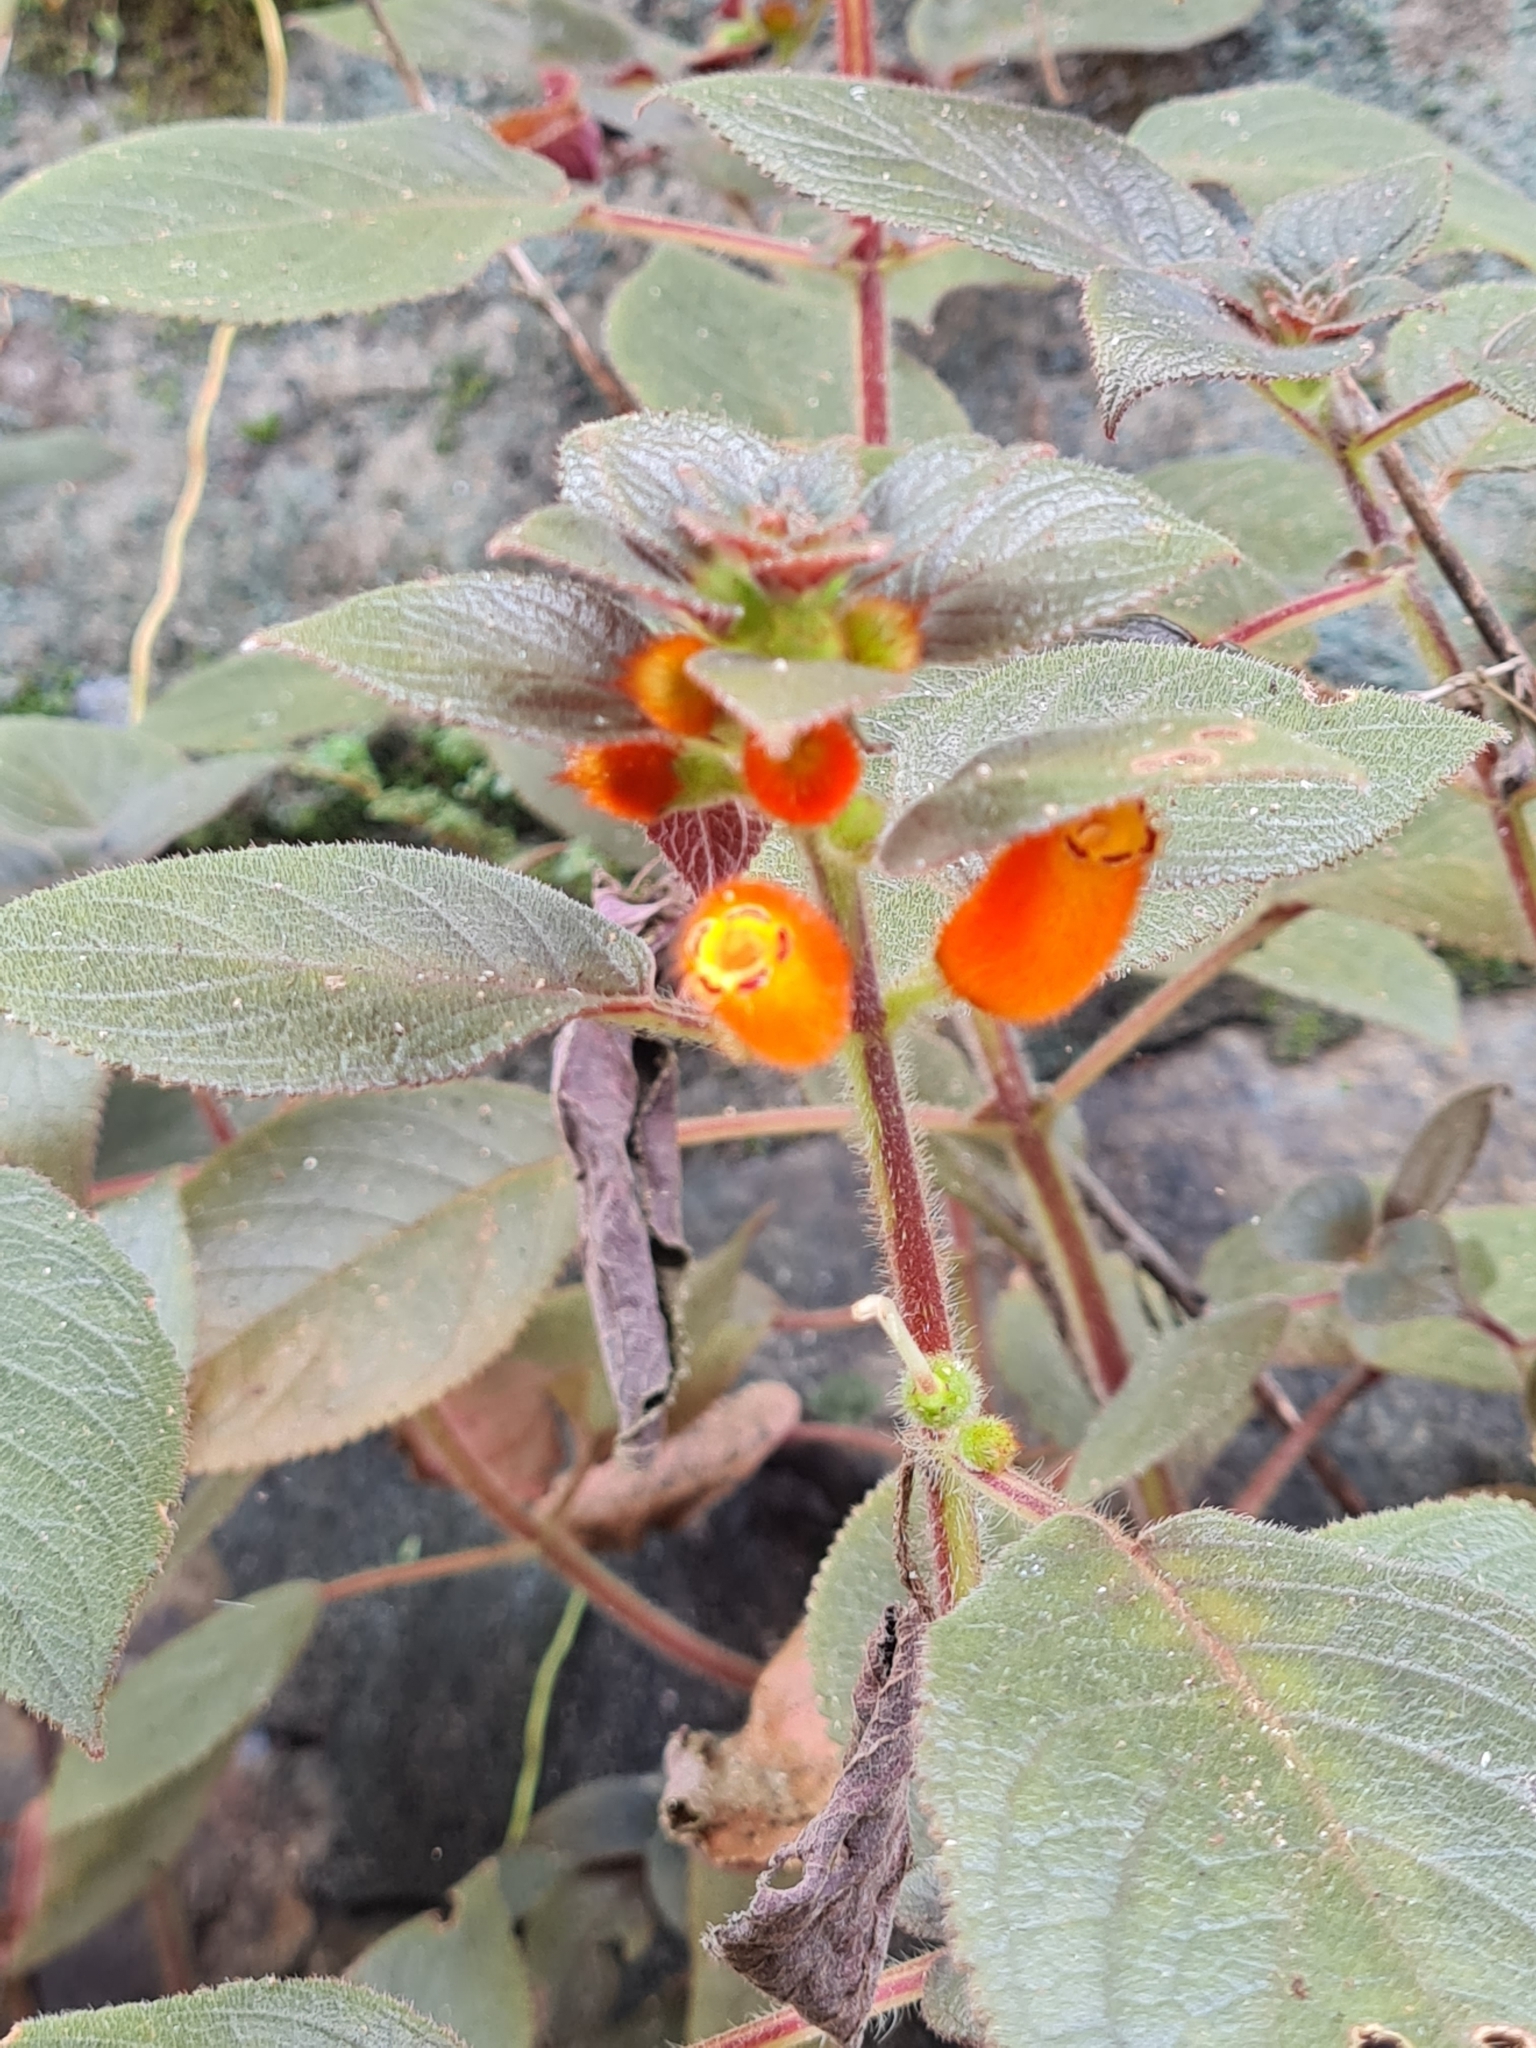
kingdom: Plantae
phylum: Tracheophyta
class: Magnoliopsida
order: Lamiales
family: Gesneriaceae
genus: Kohleria
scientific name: Kohleria tubiflora
